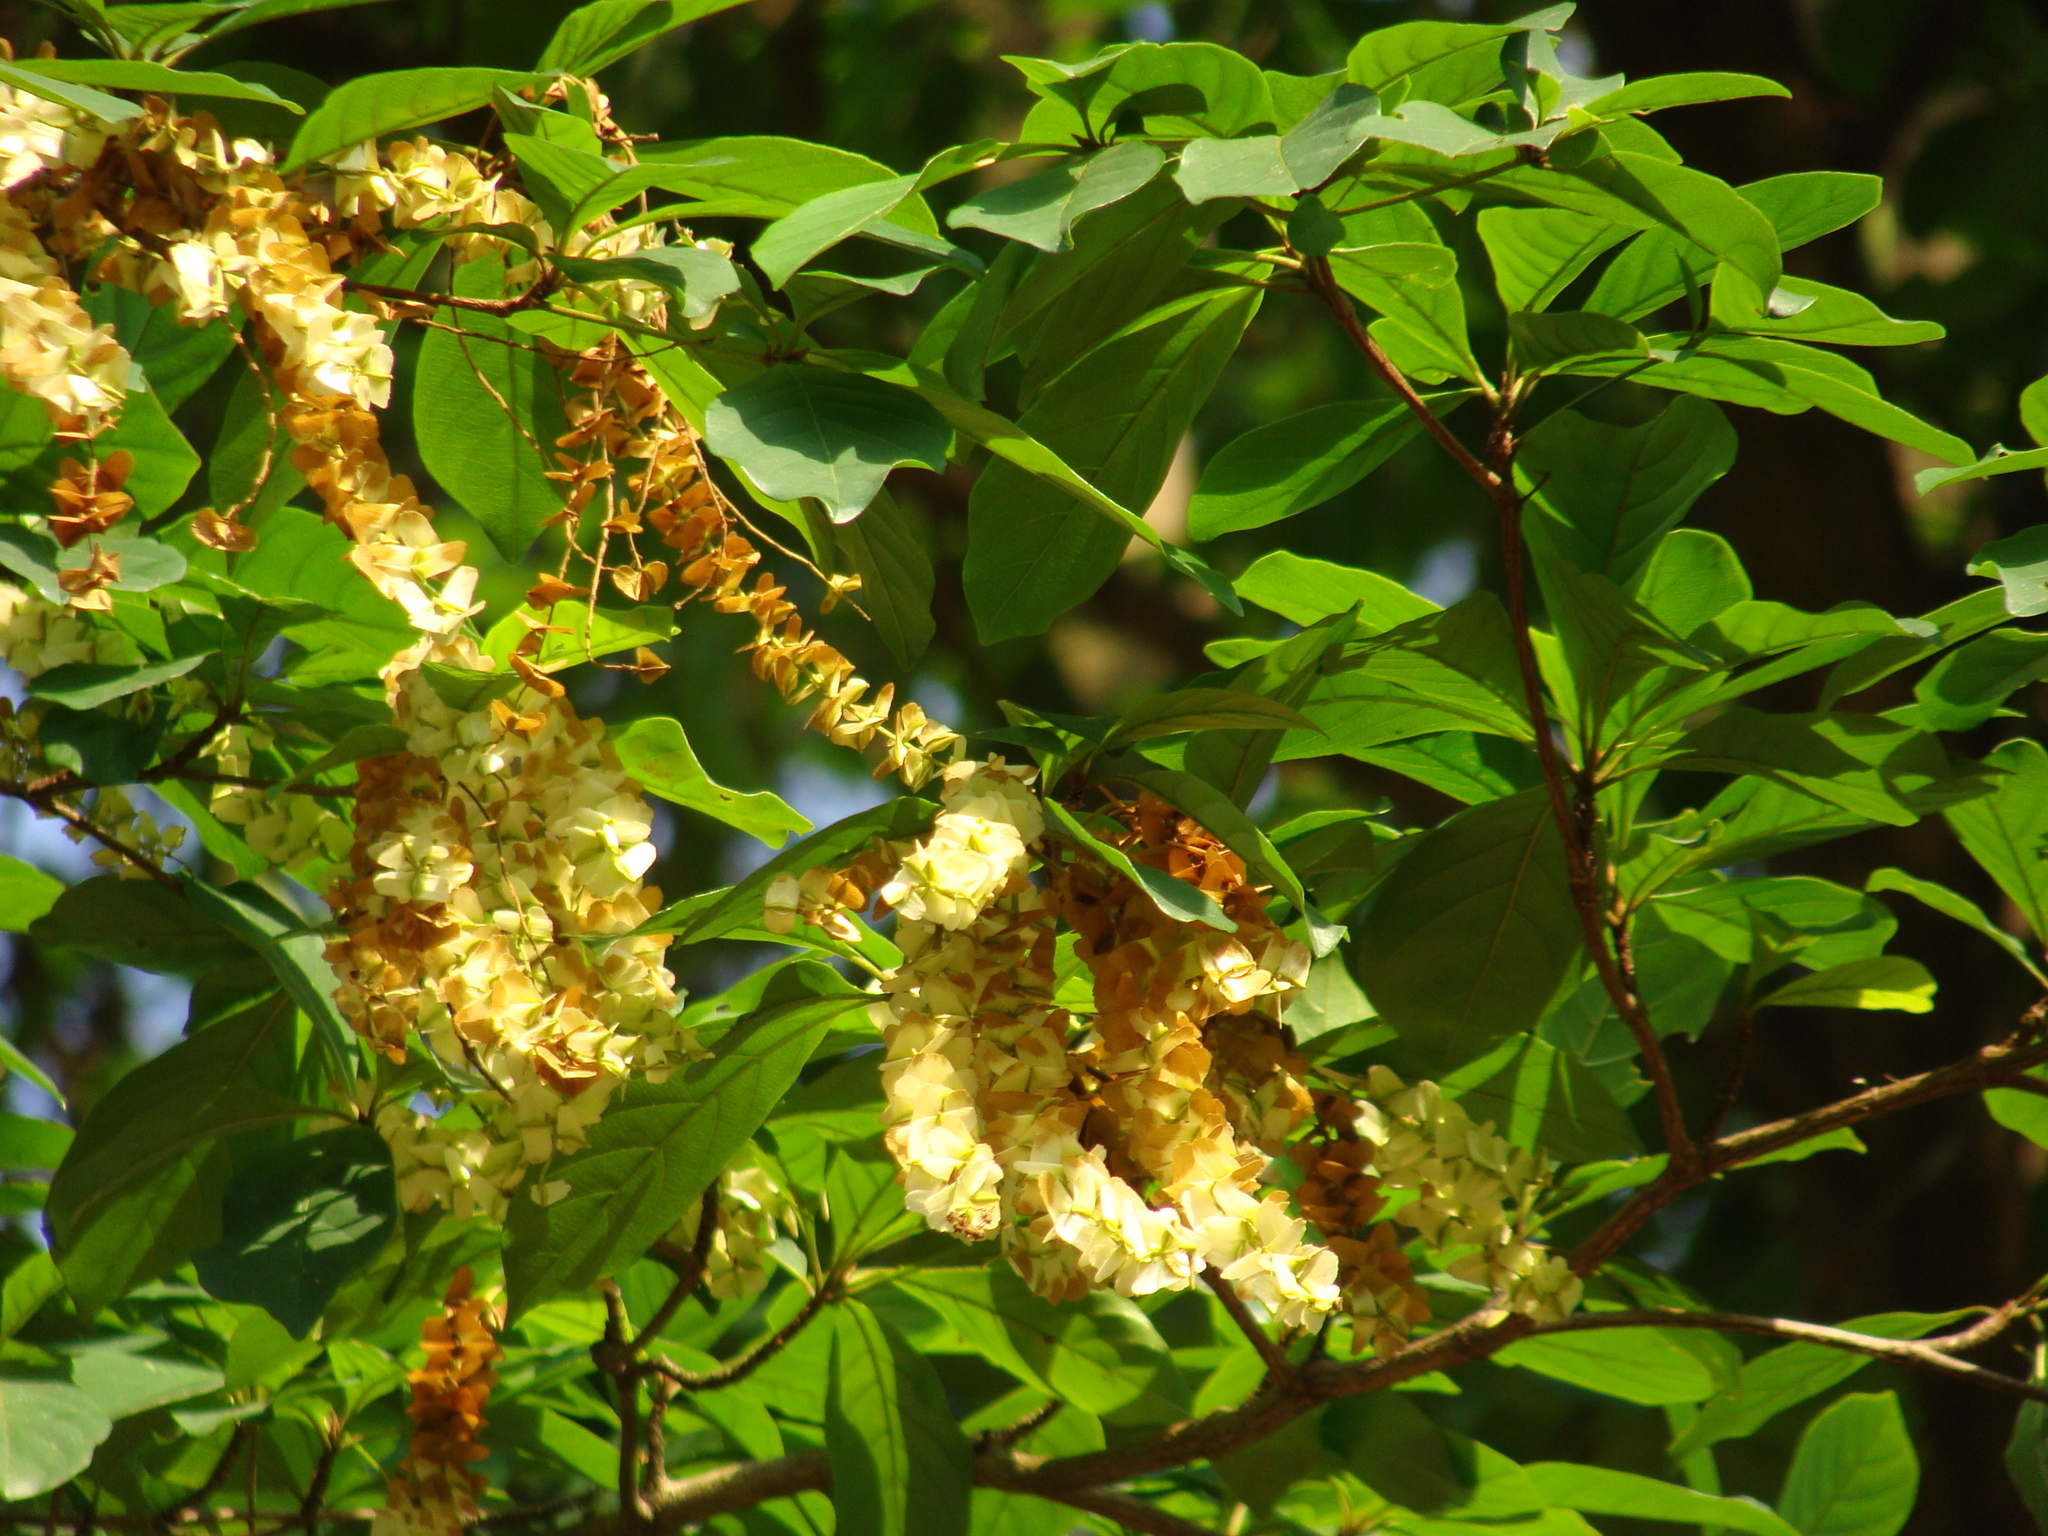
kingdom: Plantae
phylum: Tracheophyta
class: Magnoliopsida
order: Myrtales
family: Combretaceae
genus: Terminalia
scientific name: Terminalia amazonica
